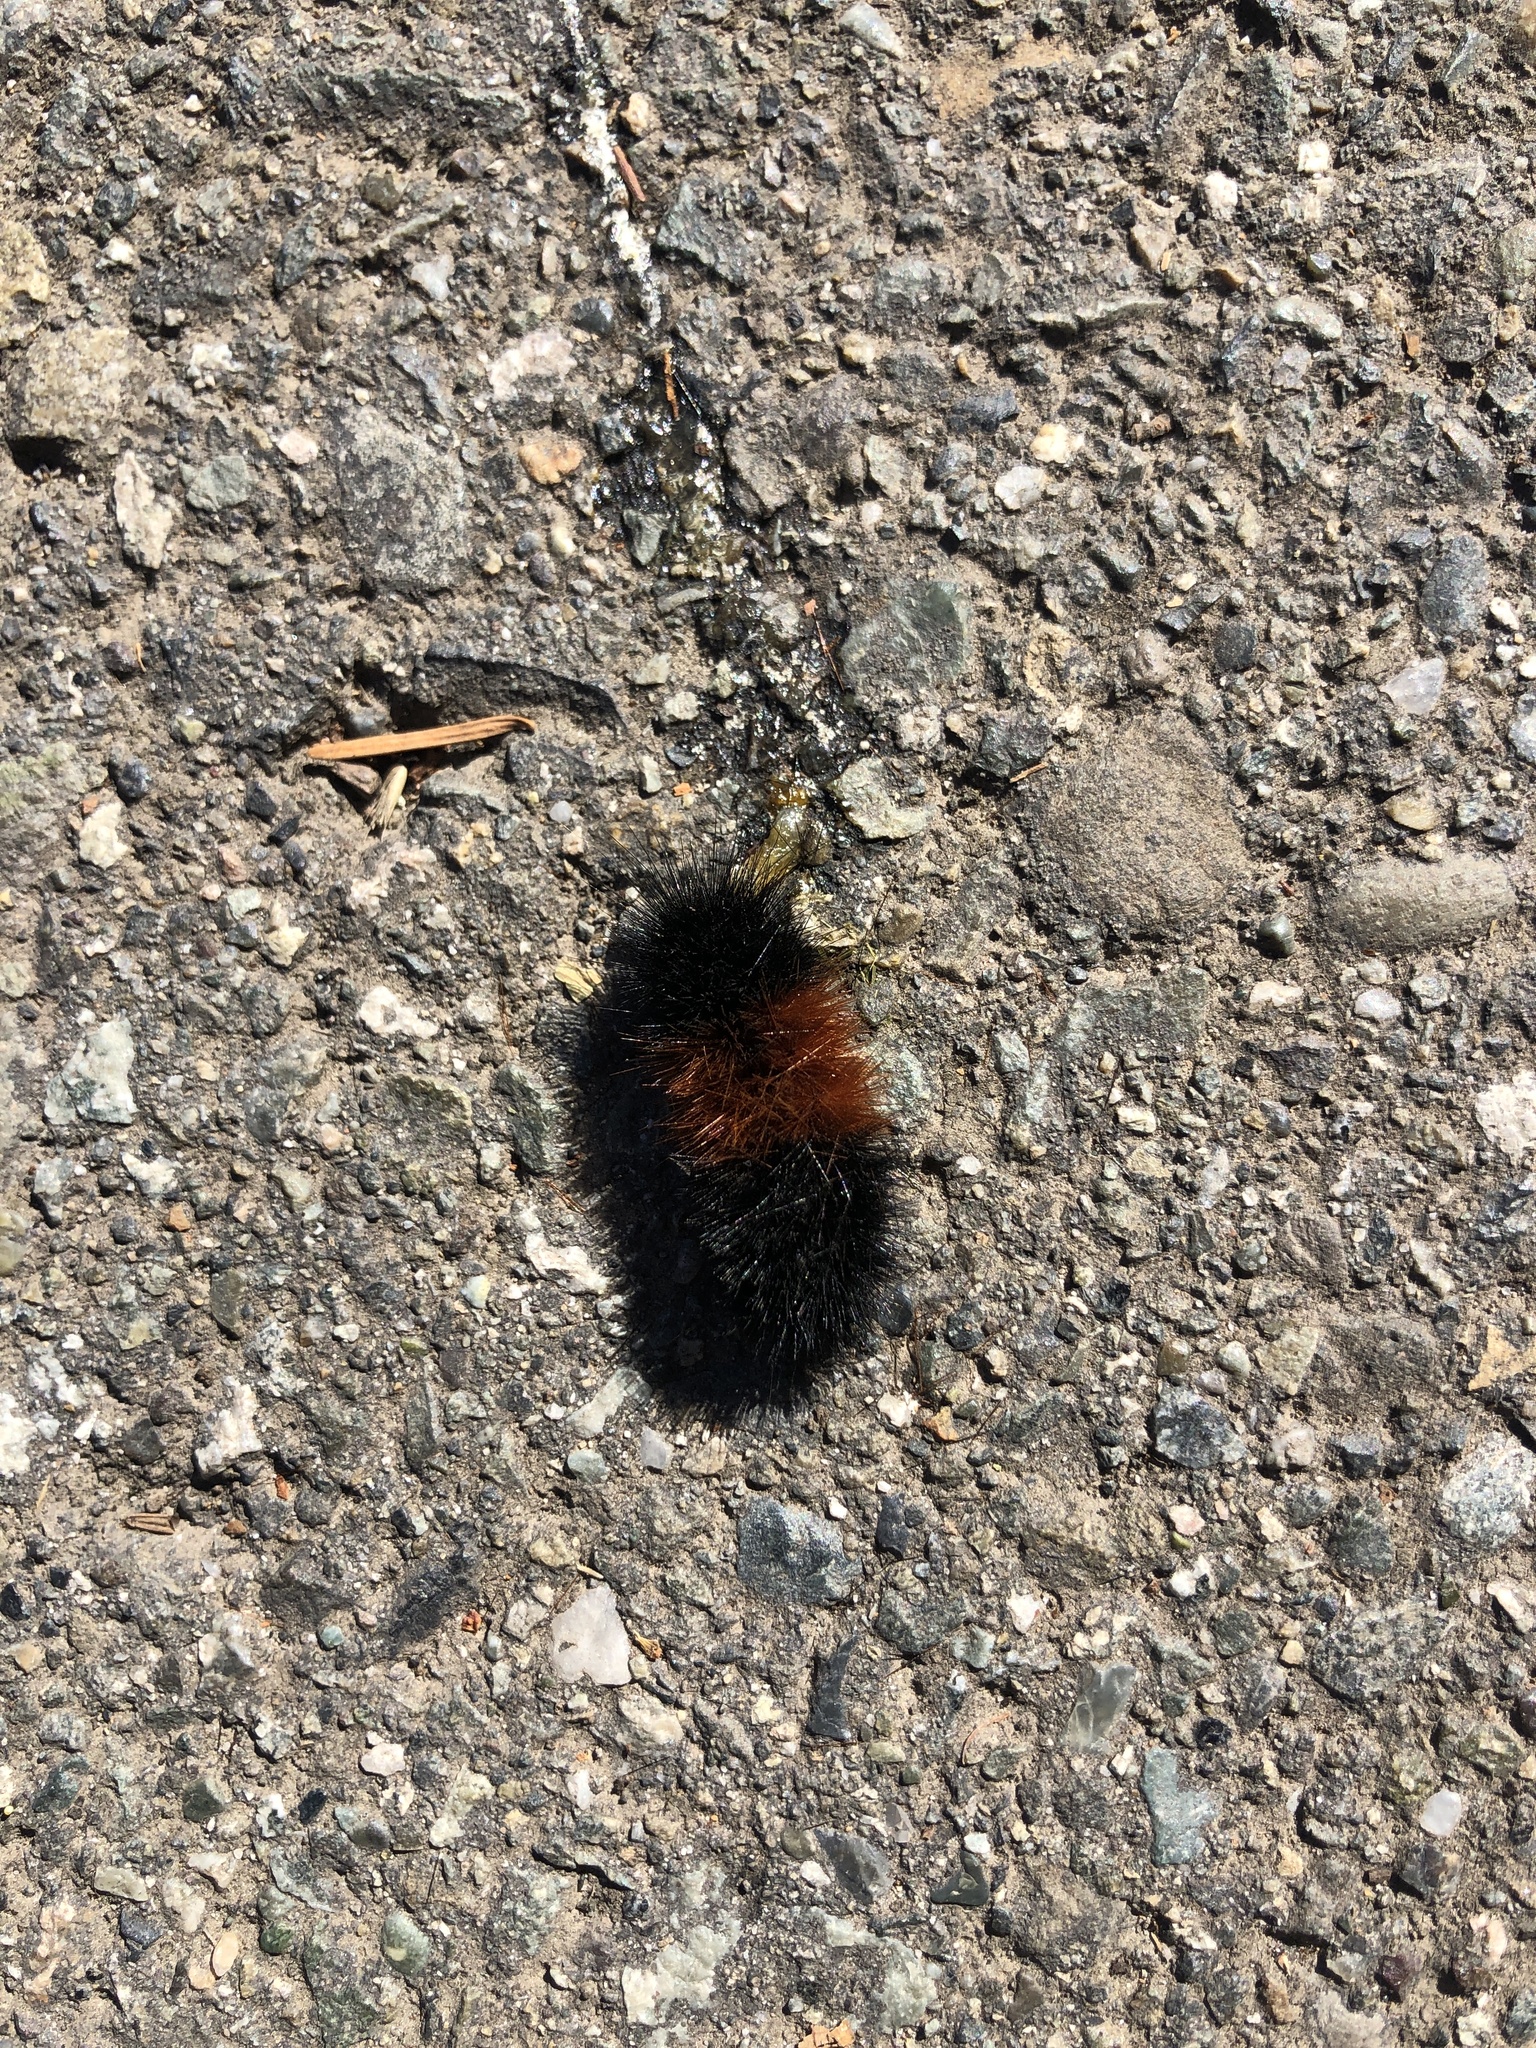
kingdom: Animalia
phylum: Arthropoda
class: Insecta
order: Lepidoptera
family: Erebidae
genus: Pyrrharctia
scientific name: Pyrrharctia isabella
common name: Isabella tiger moth
